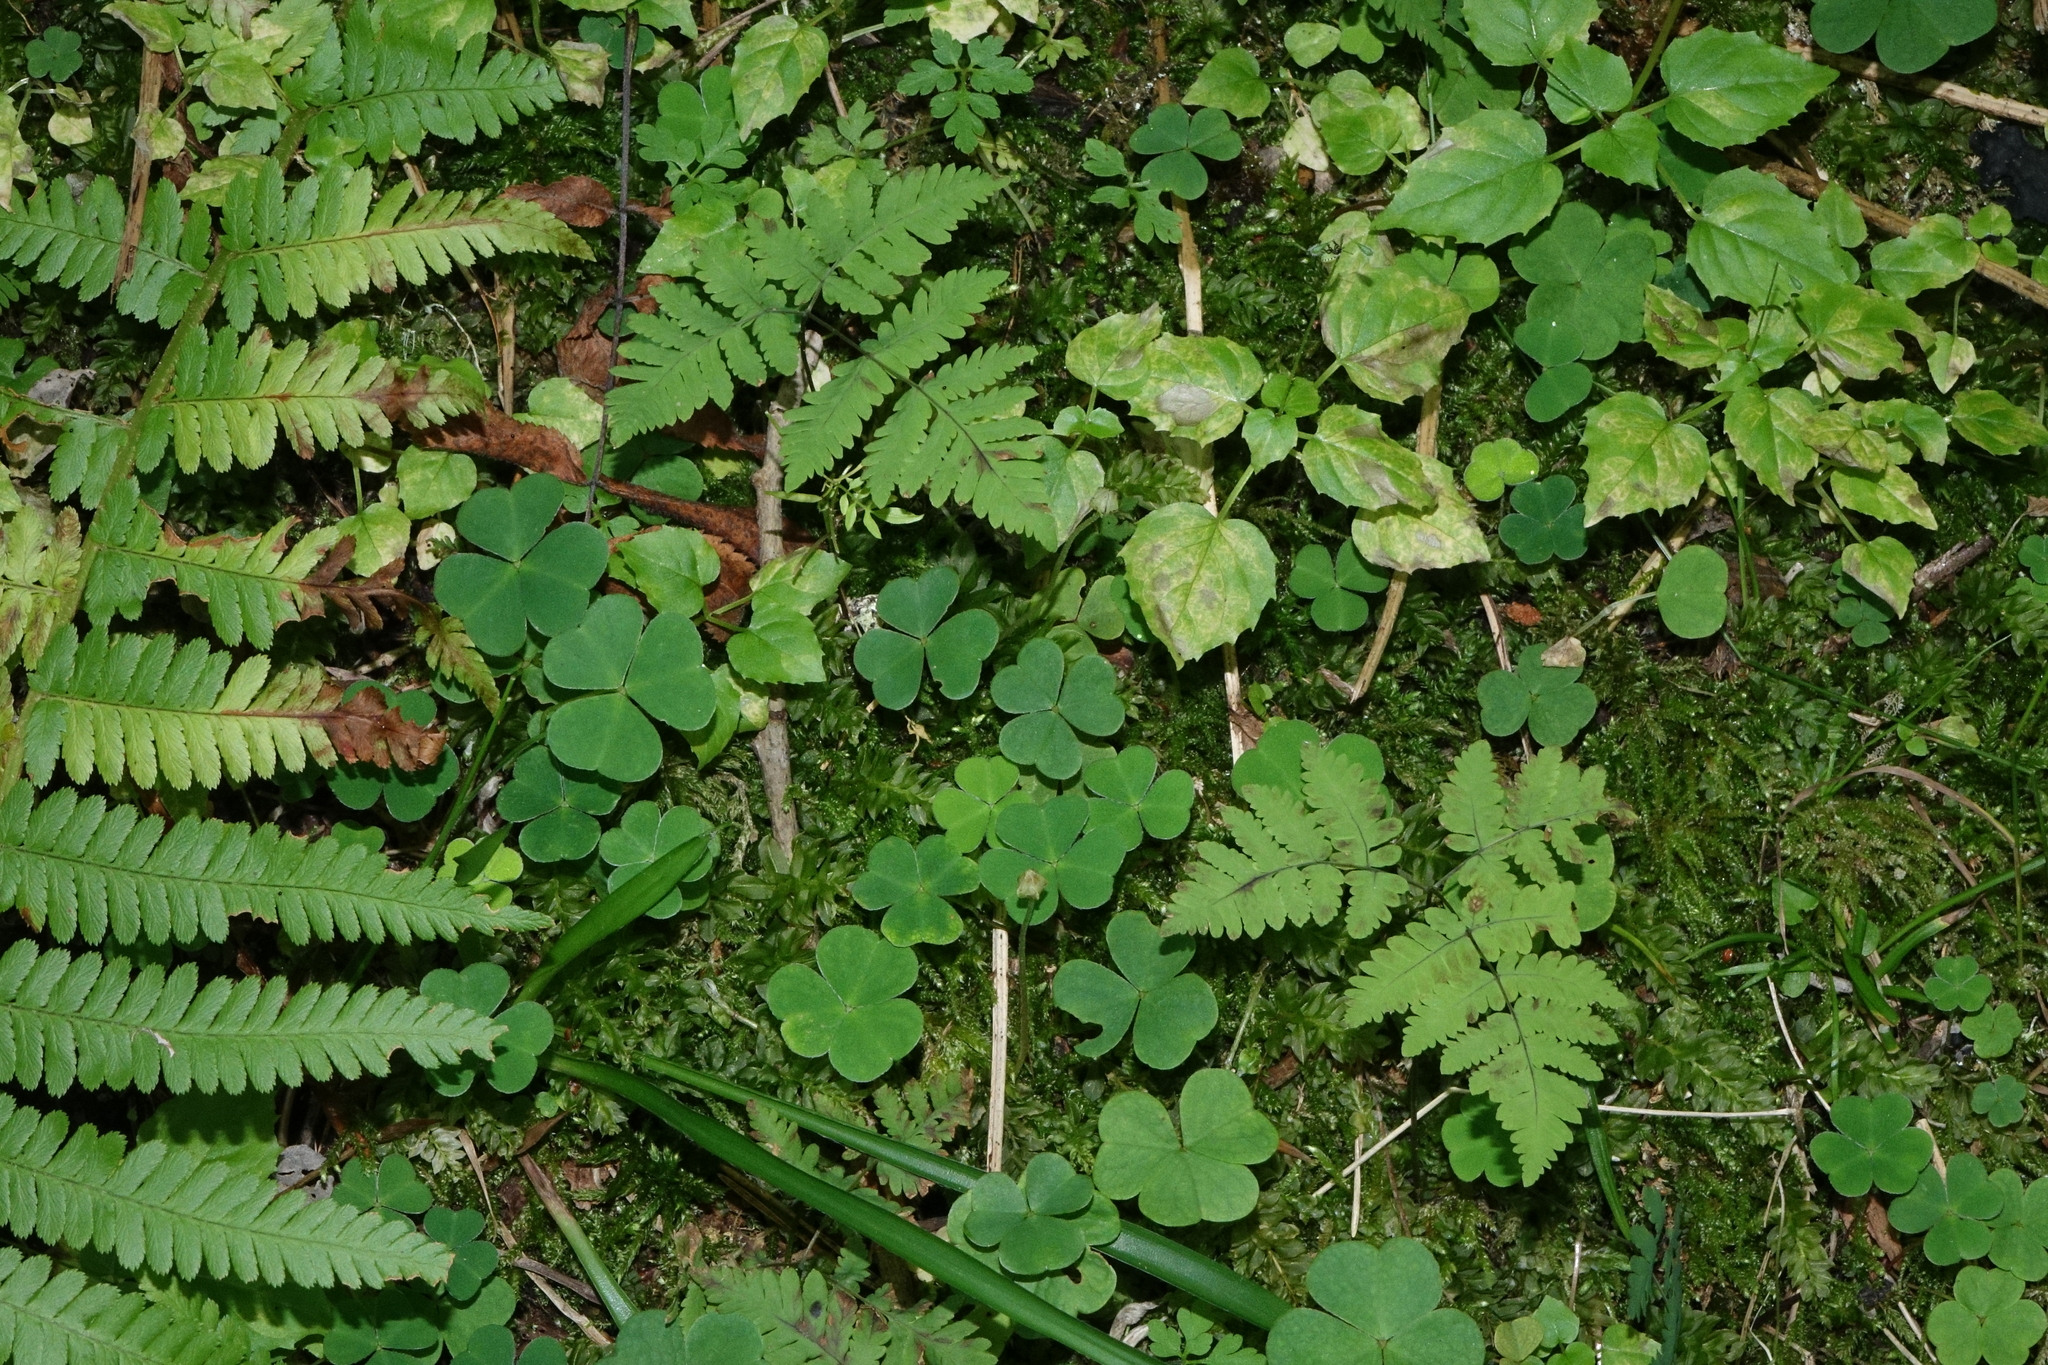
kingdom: Plantae
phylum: Tracheophyta
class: Magnoliopsida
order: Oxalidales
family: Oxalidaceae
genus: Oxalis
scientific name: Oxalis acetosella
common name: Wood-sorrel
